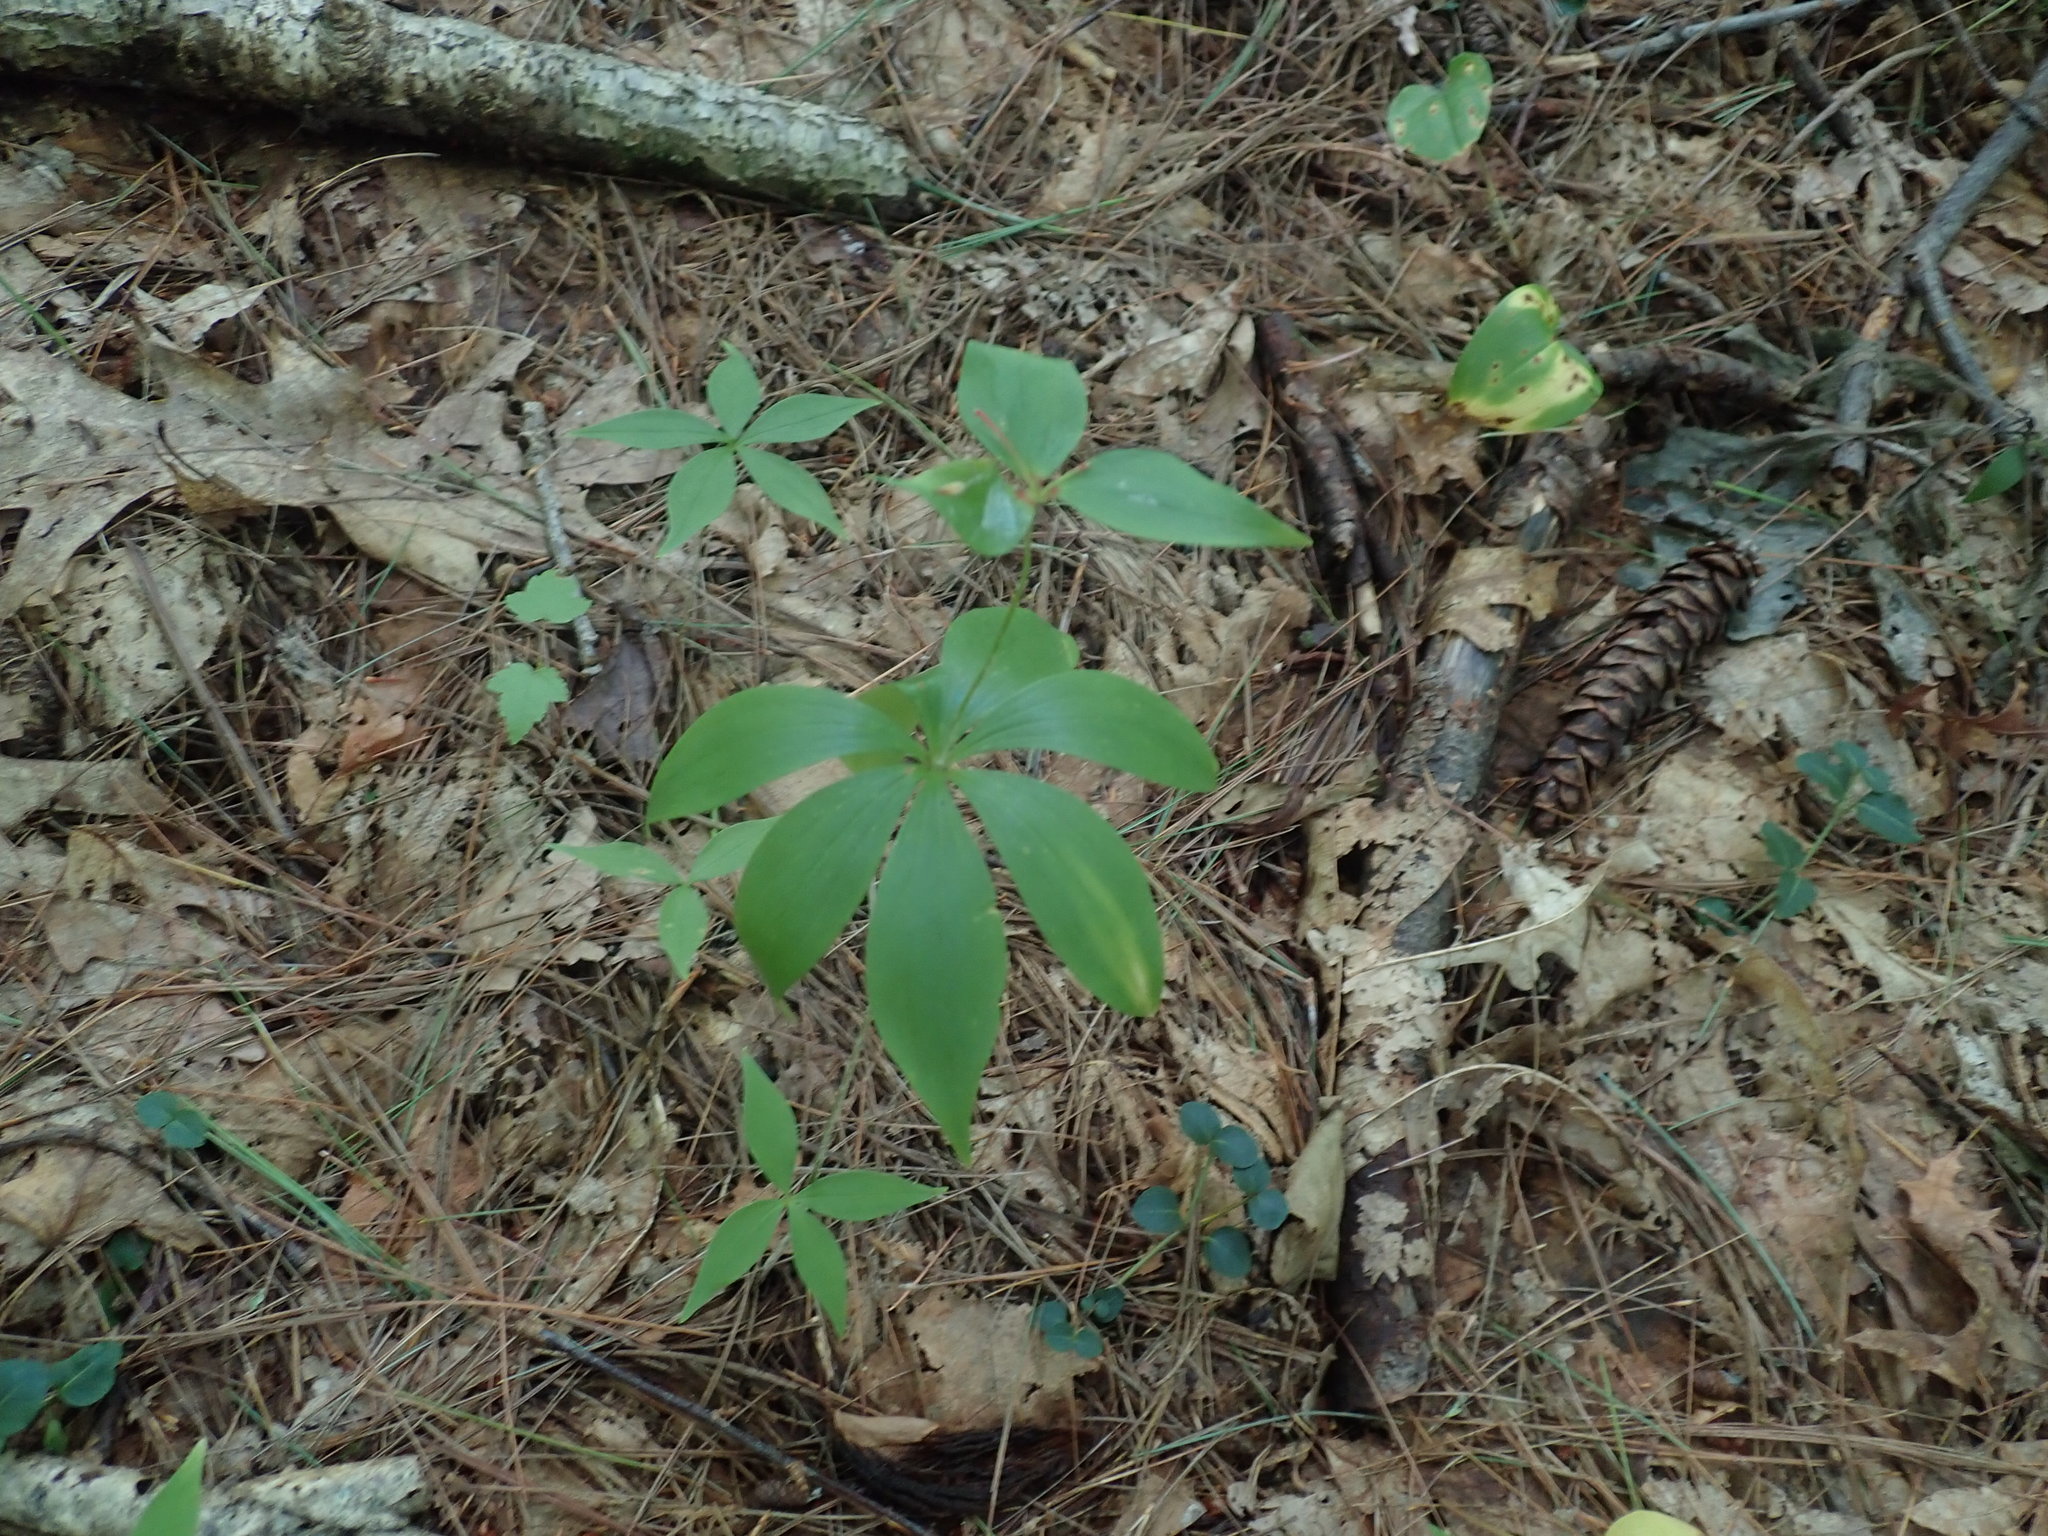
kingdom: Plantae
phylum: Tracheophyta
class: Liliopsida
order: Liliales
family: Liliaceae
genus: Medeola
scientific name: Medeola virginiana
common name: Indian cucumber-root
